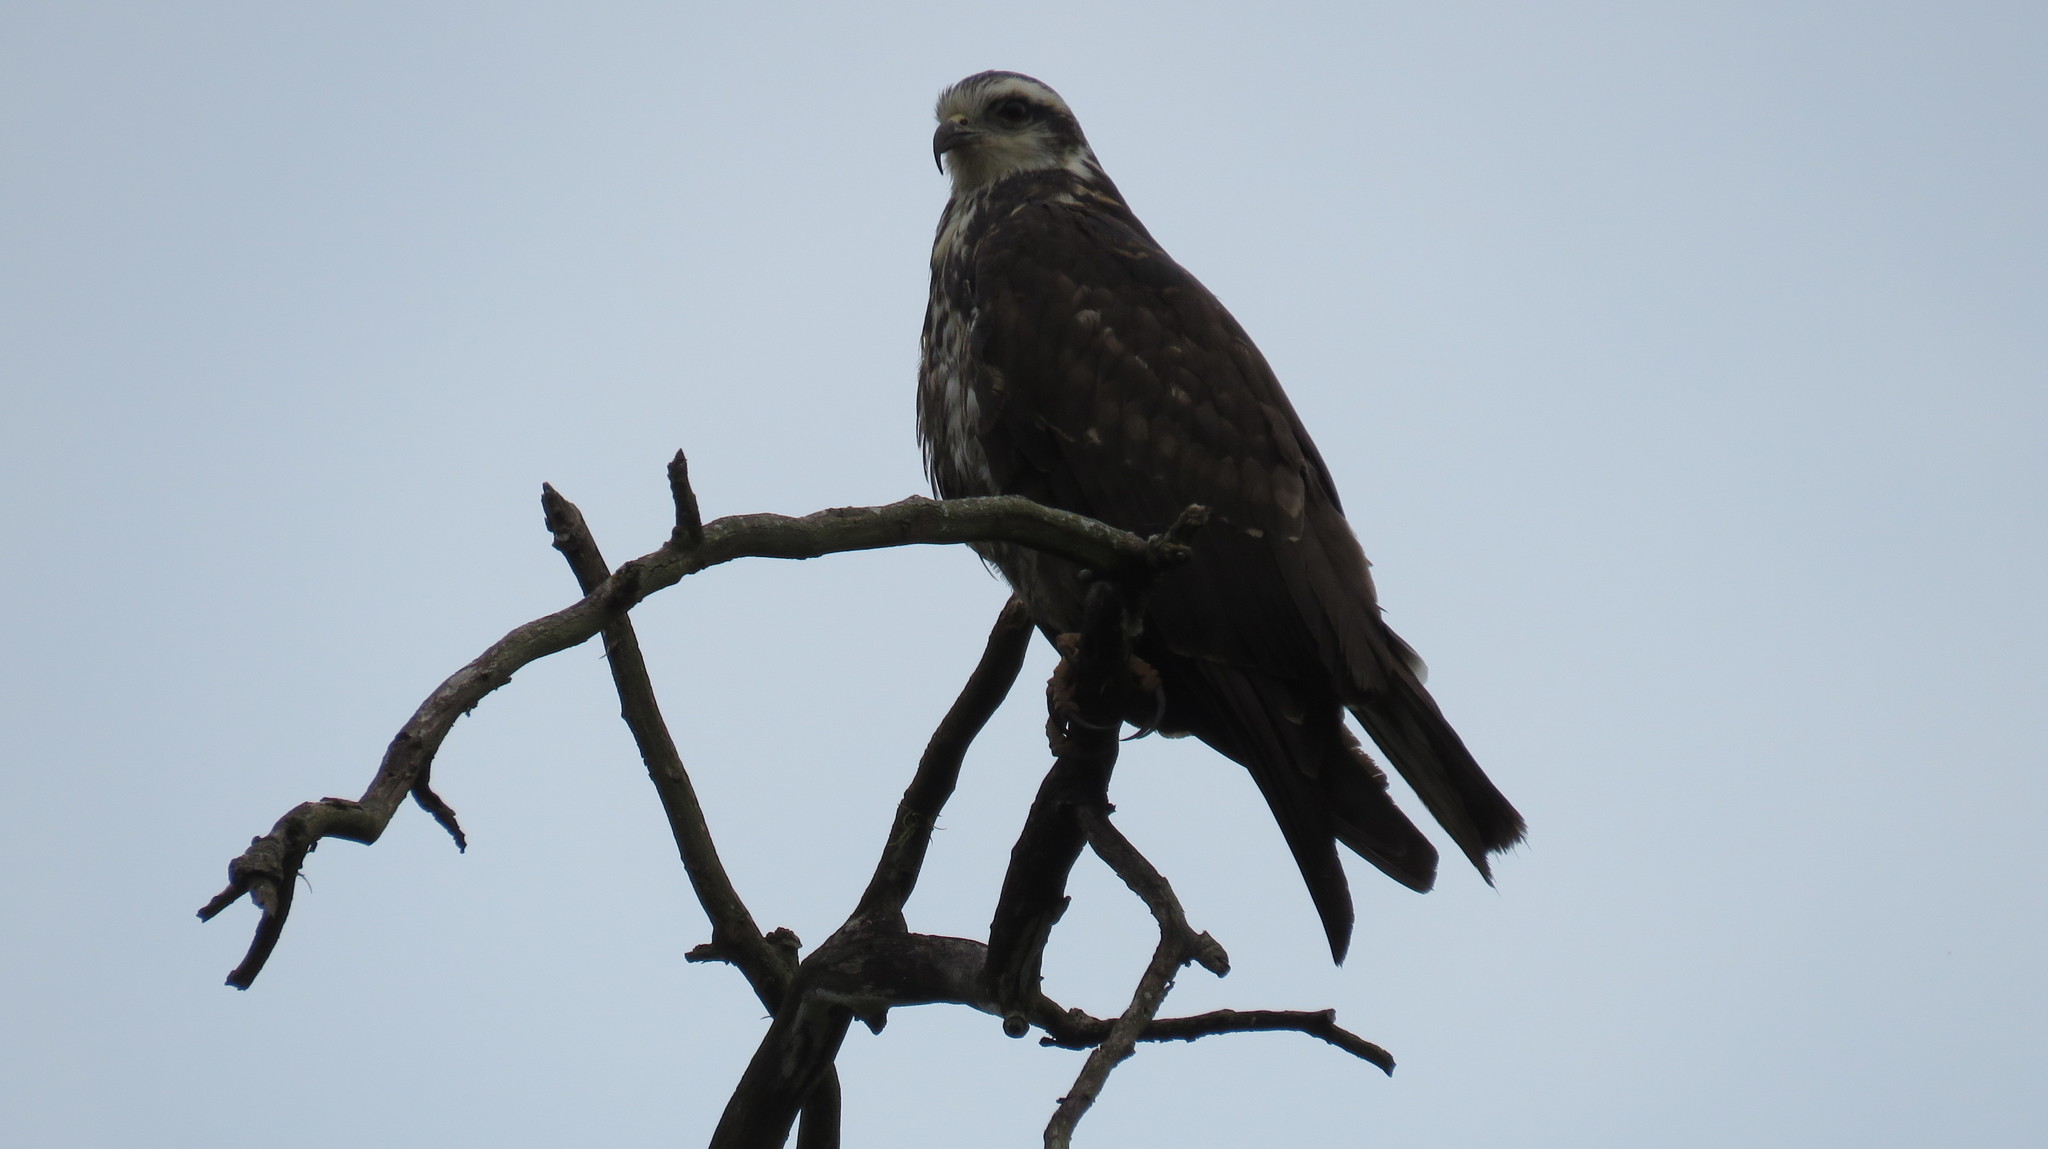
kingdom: Animalia
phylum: Chordata
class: Aves
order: Accipitriformes
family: Accipitridae
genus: Rostrhamus
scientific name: Rostrhamus sociabilis
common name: Snail kite
